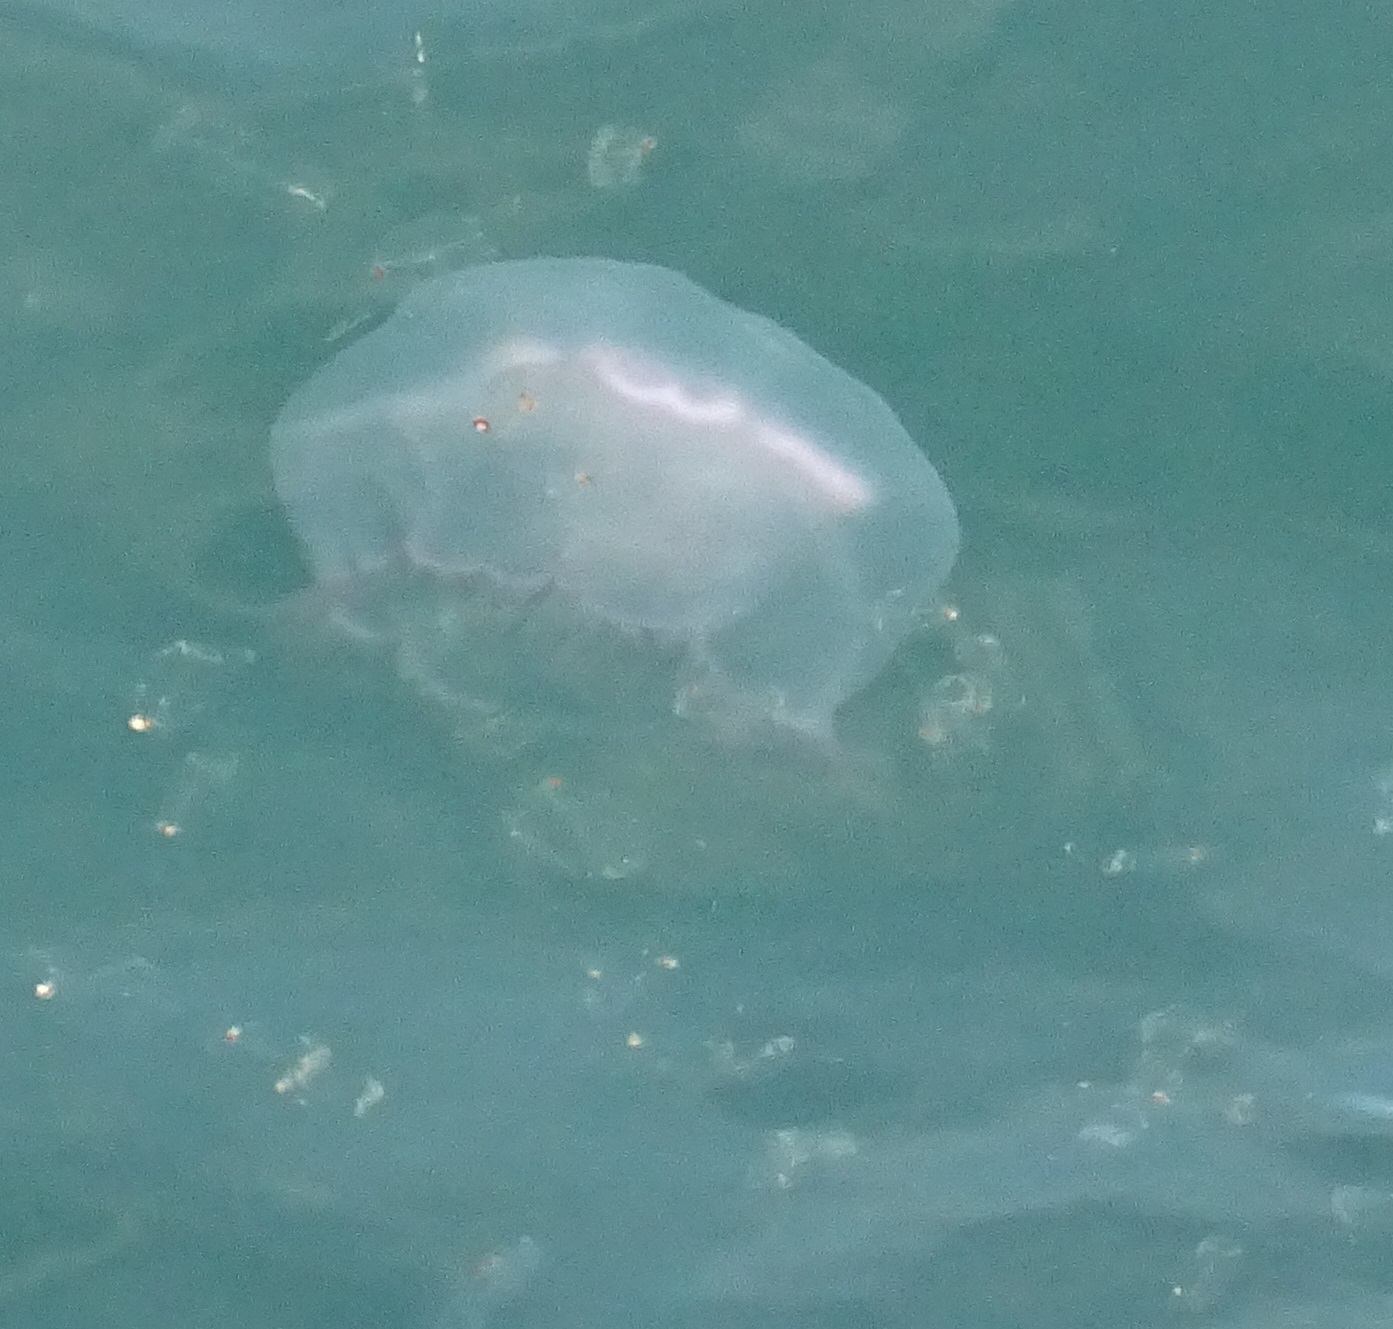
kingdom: Animalia
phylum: Cnidaria
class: Scyphozoa
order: Semaeostomeae
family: Ulmaridae
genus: Aurelia
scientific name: Aurelia aurita
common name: Moon jellyfish
